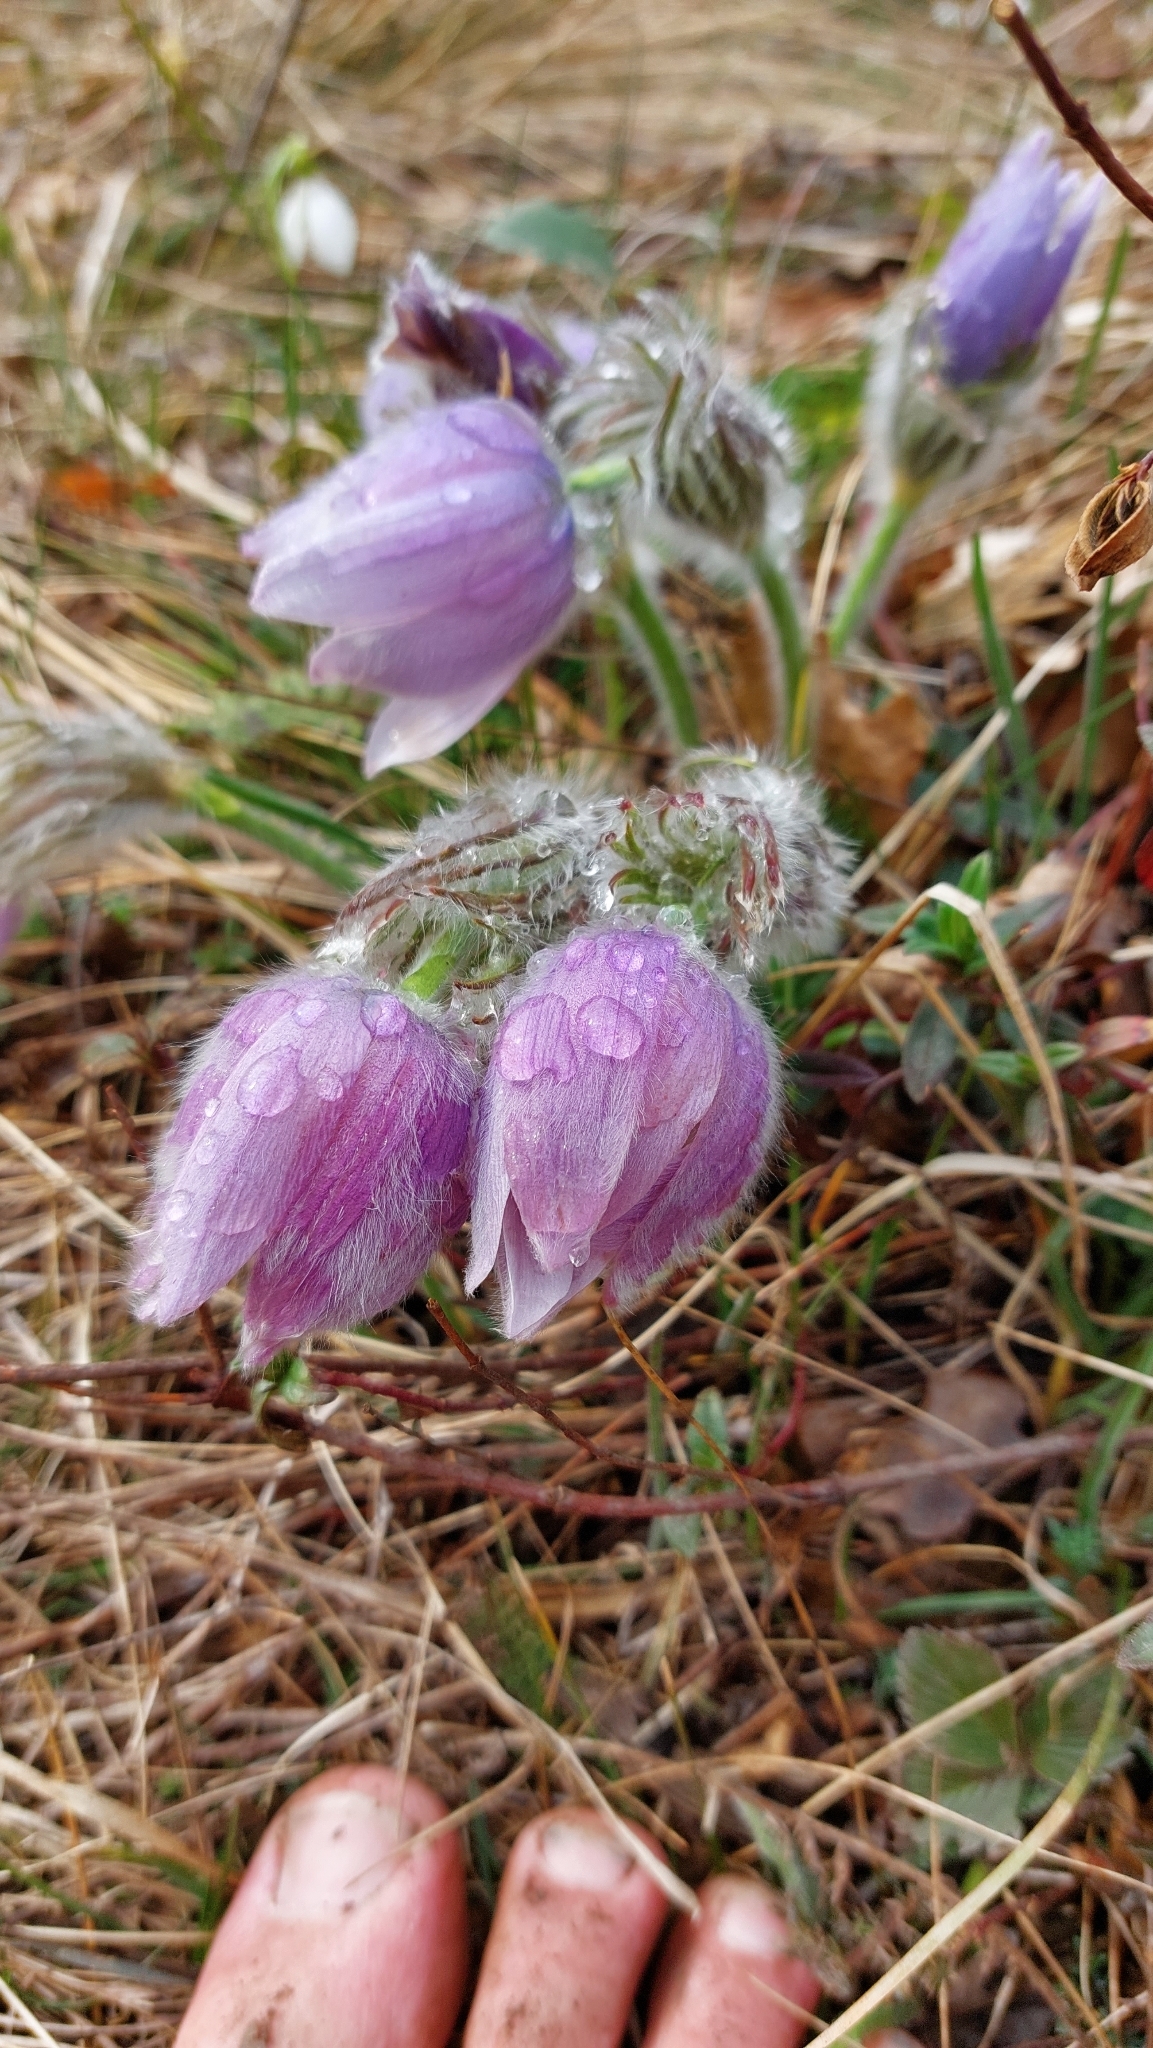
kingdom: Plantae
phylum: Tracheophyta
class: Magnoliopsida
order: Ranunculales
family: Ranunculaceae
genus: Pulsatilla
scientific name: Pulsatilla grandis
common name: Greater pasque flower
